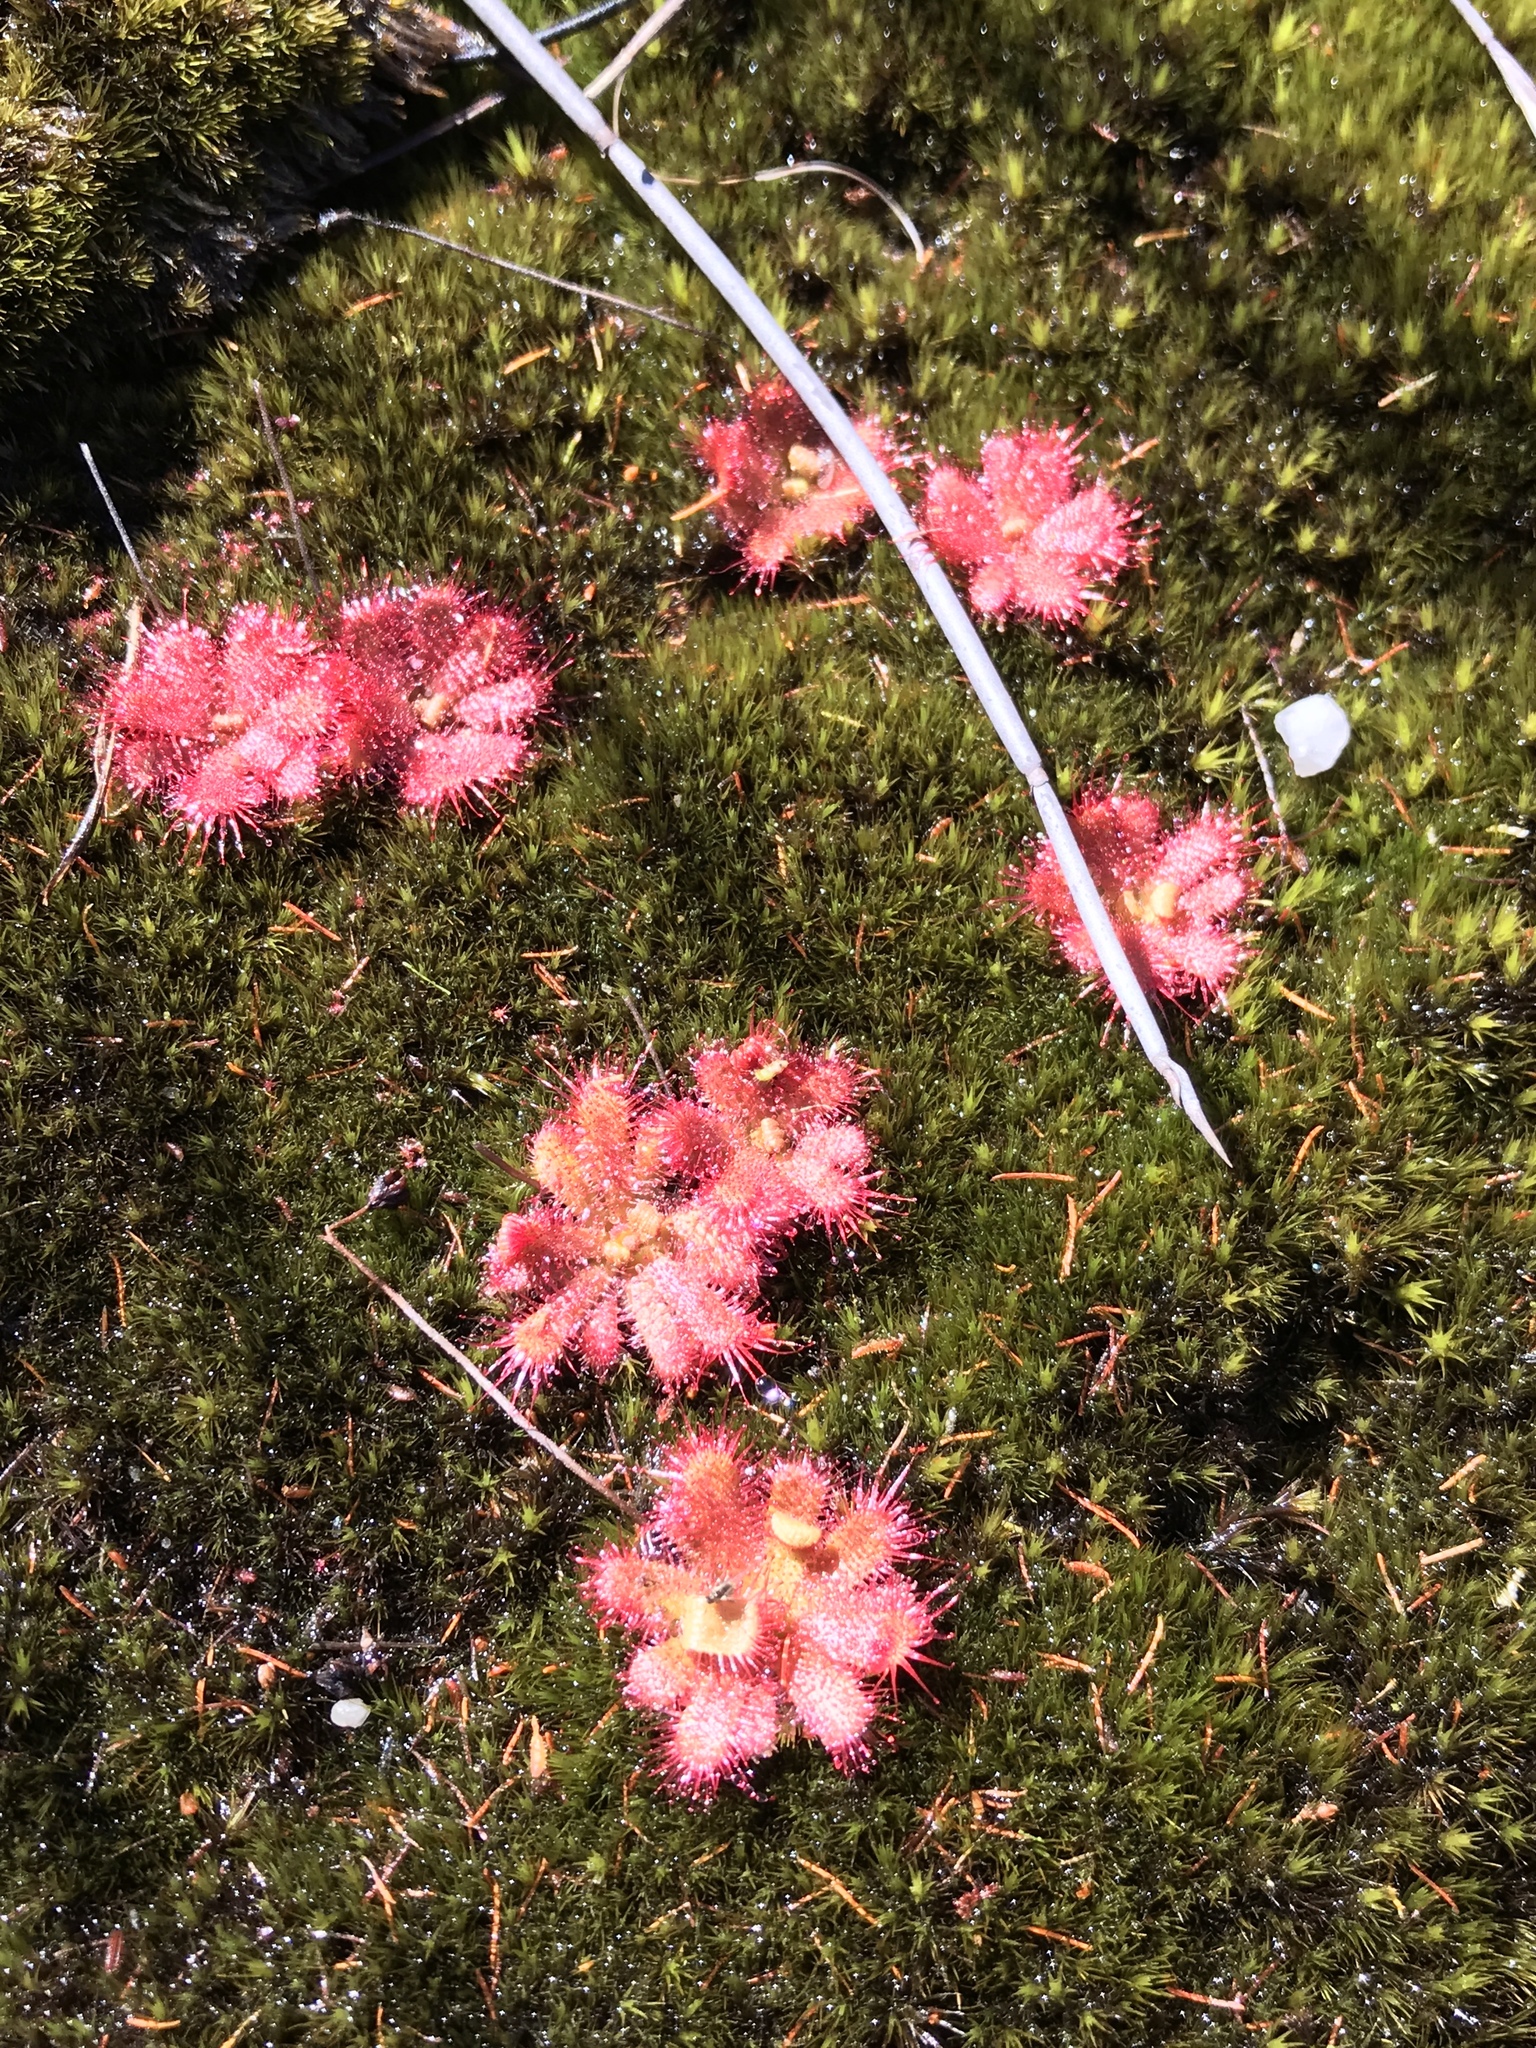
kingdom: Plantae
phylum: Tracheophyta
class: Magnoliopsida
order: Caryophyllales
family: Droseraceae
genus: Drosera
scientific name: Drosera trinervia
